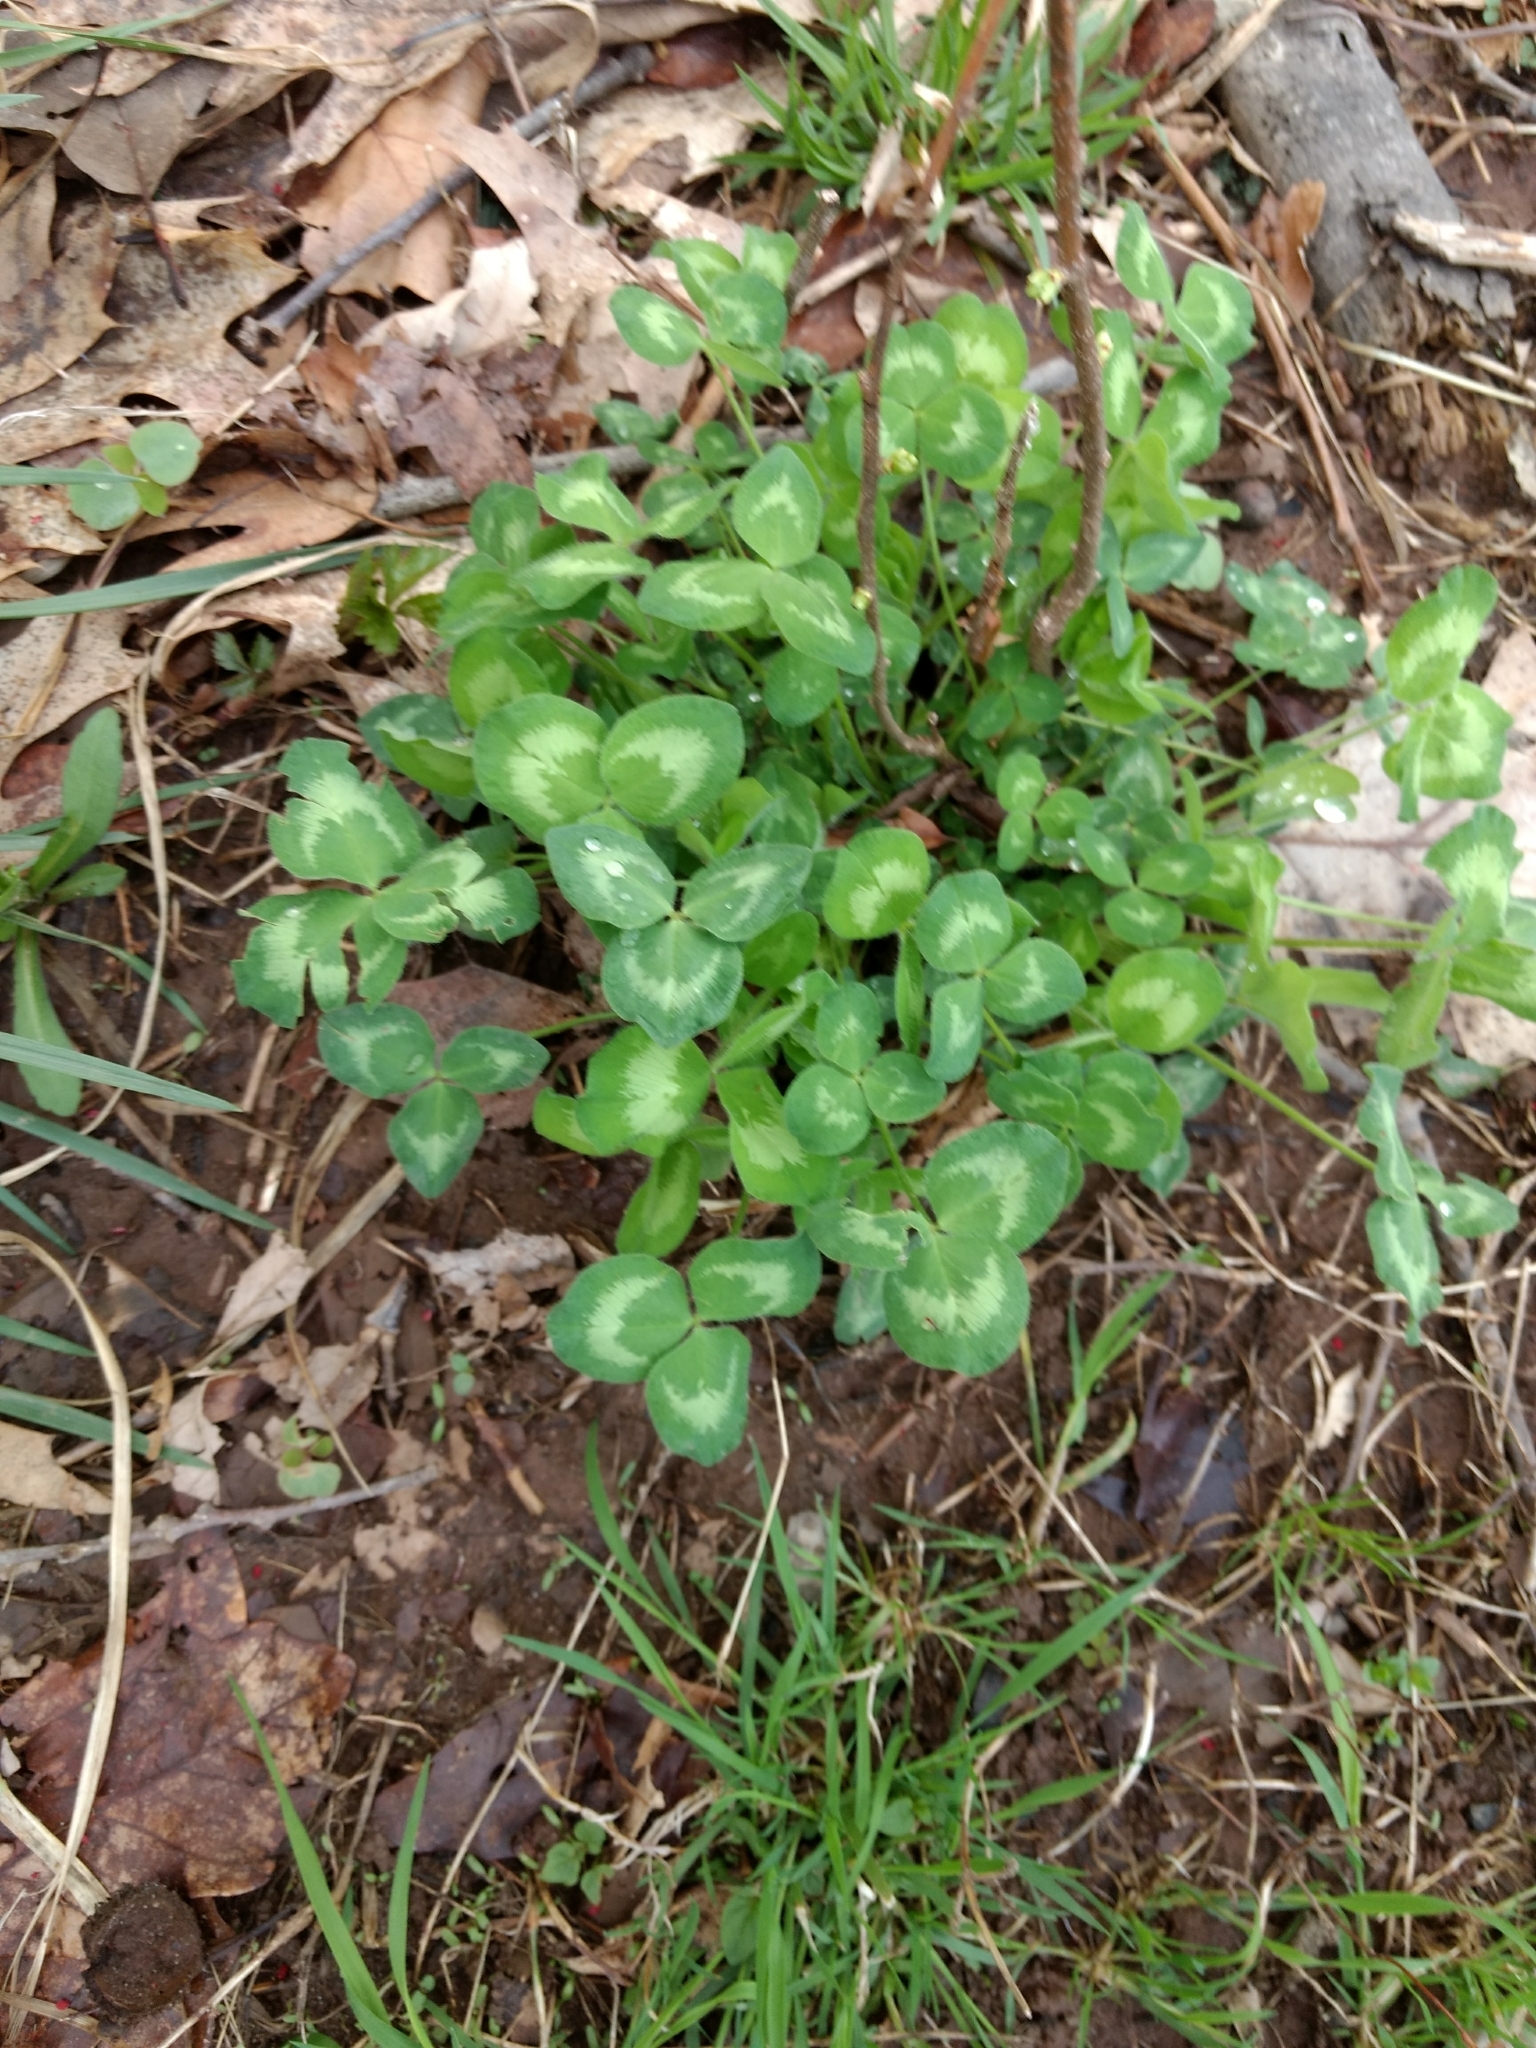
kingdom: Plantae
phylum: Tracheophyta
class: Magnoliopsida
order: Fabales
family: Fabaceae
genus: Trifolium
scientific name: Trifolium pratense
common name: Red clover
